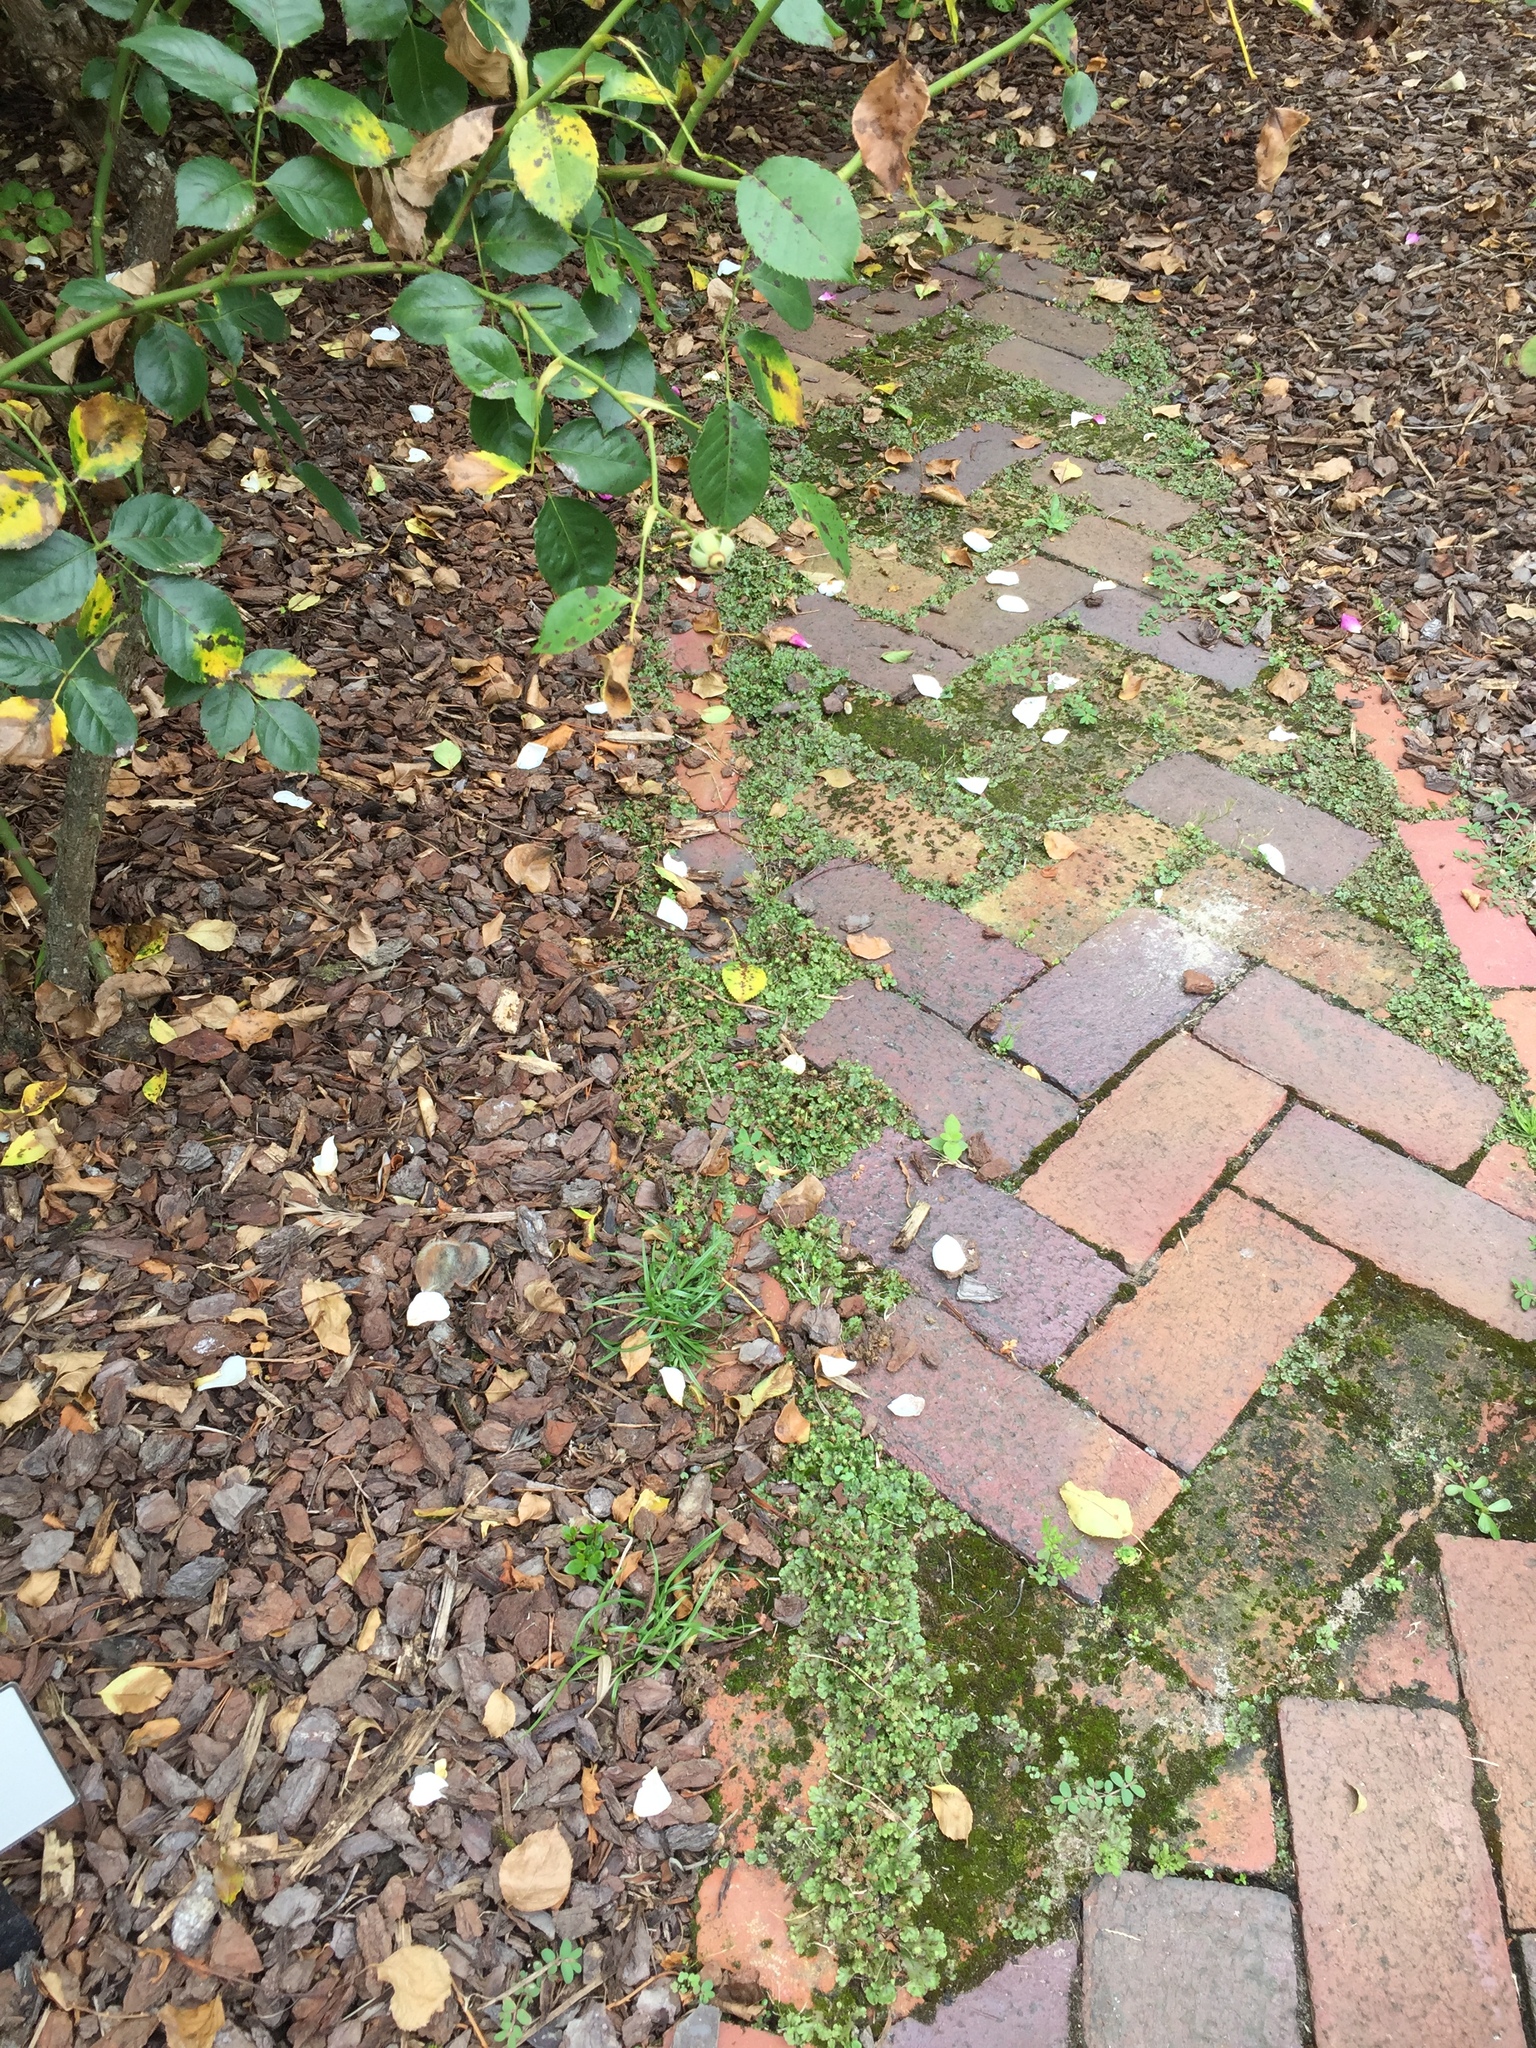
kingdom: Plantae
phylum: Marchantiophyta
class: Marchantiopsida
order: Marchantiales
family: Marchantiaceae
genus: Marchantia
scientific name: Marchantia polymorpha
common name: Common liverwort
